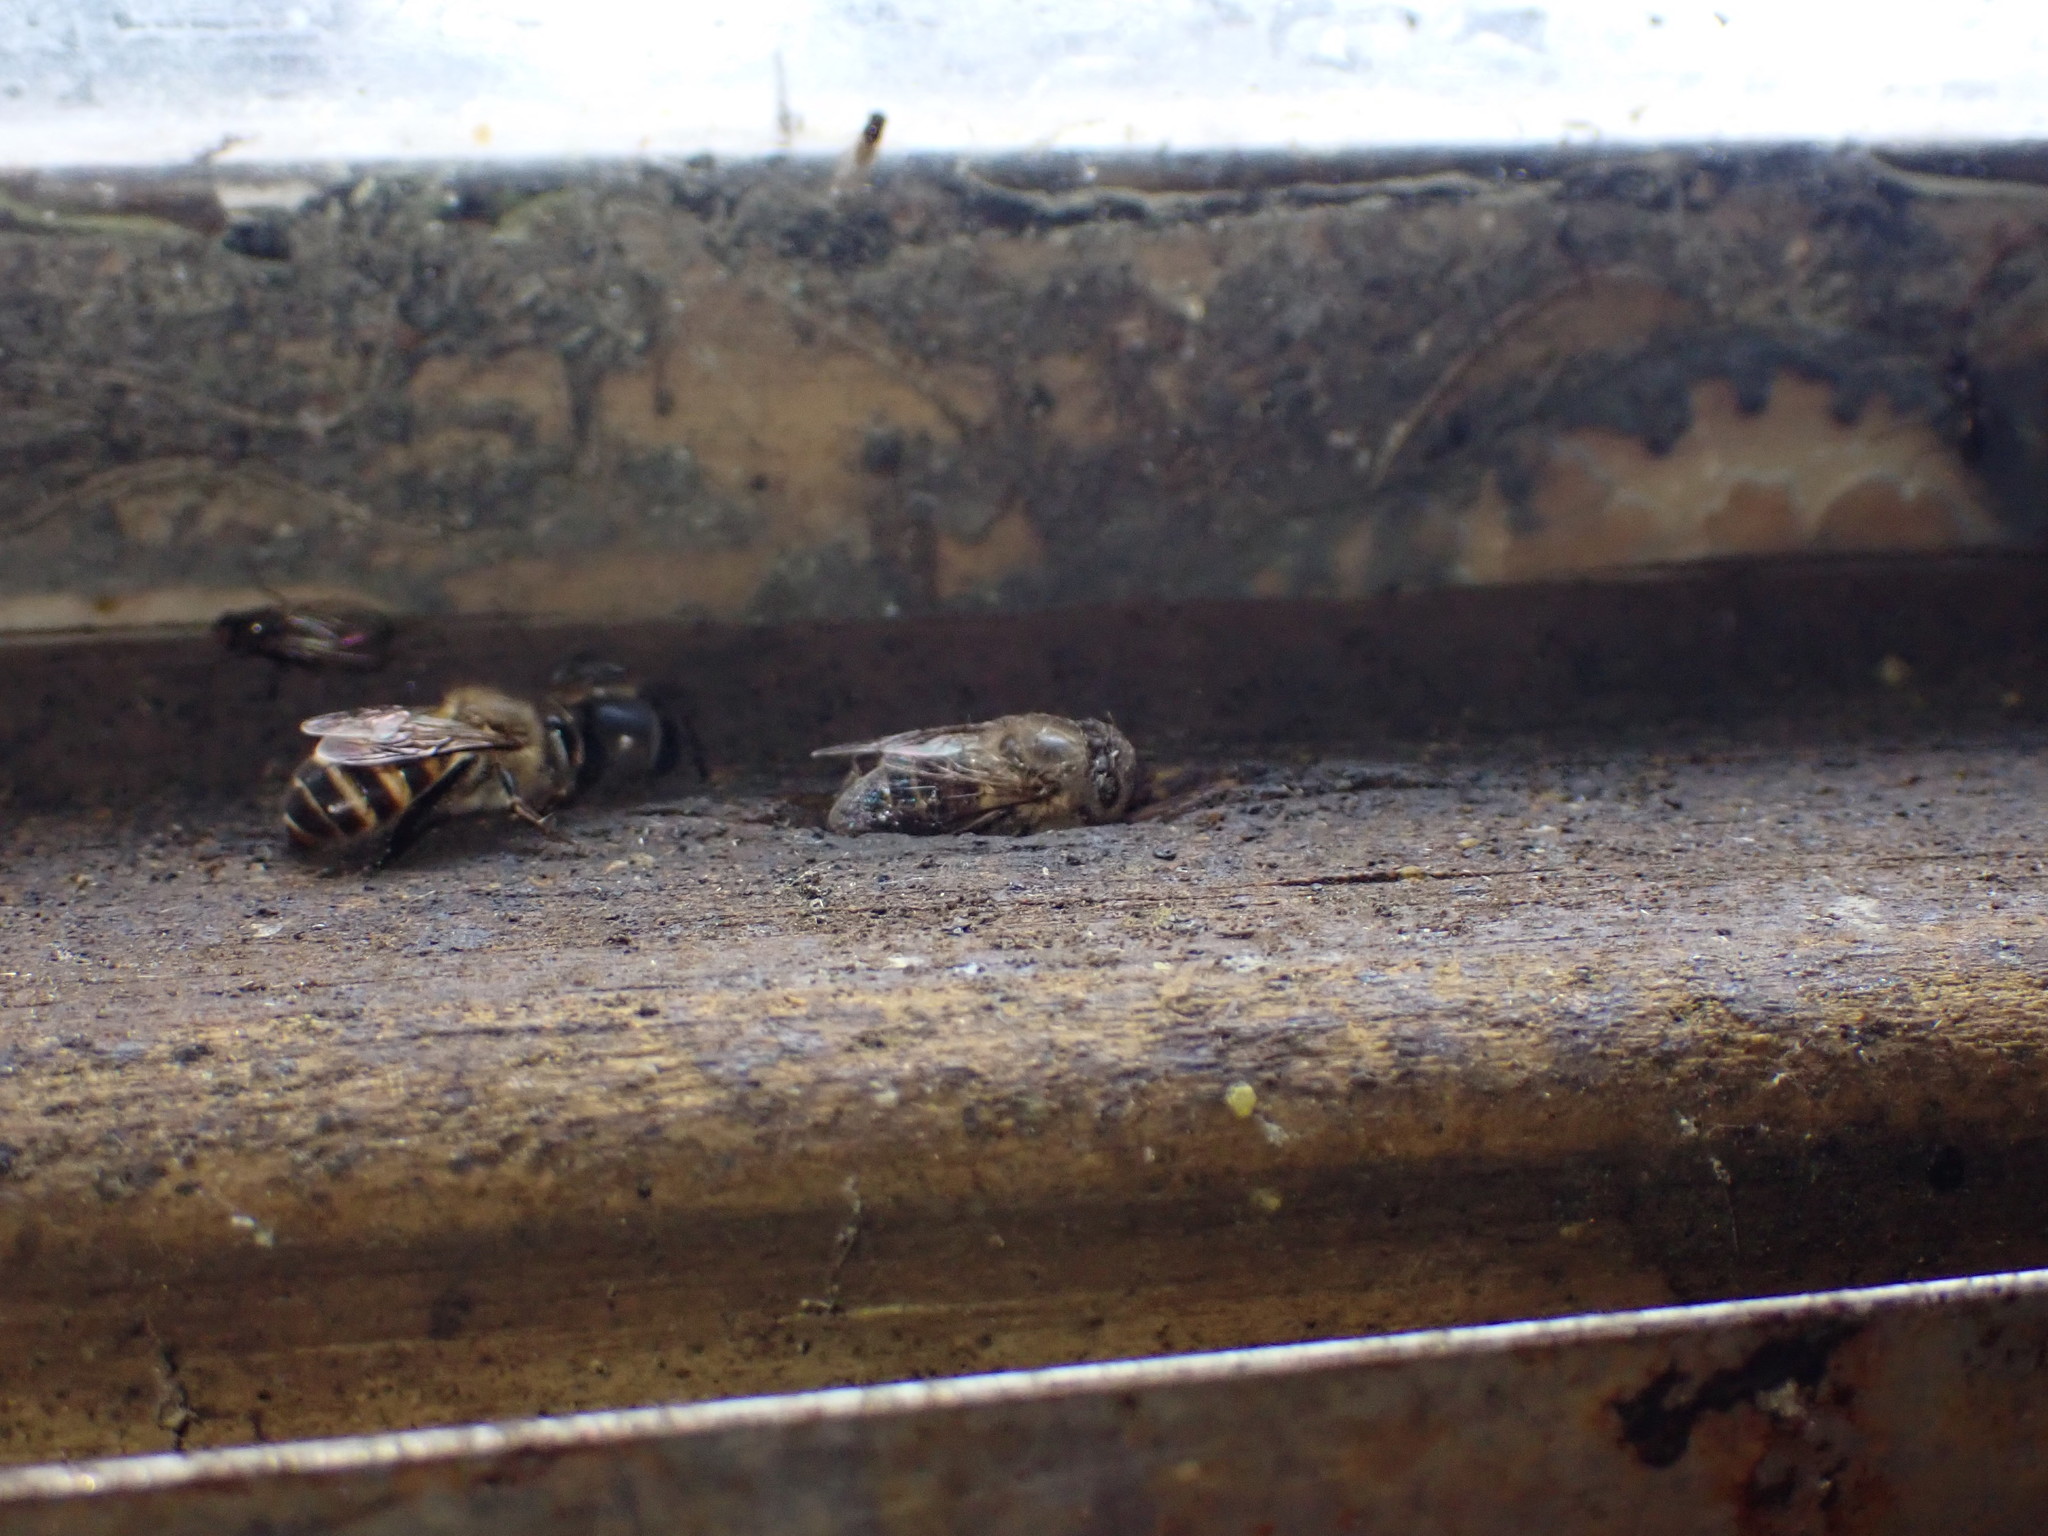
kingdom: Animalia
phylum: Arthropoda
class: Insecta
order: Hymenoptera
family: Apidae
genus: Apis
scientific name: Apis cerana
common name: Honey bee
